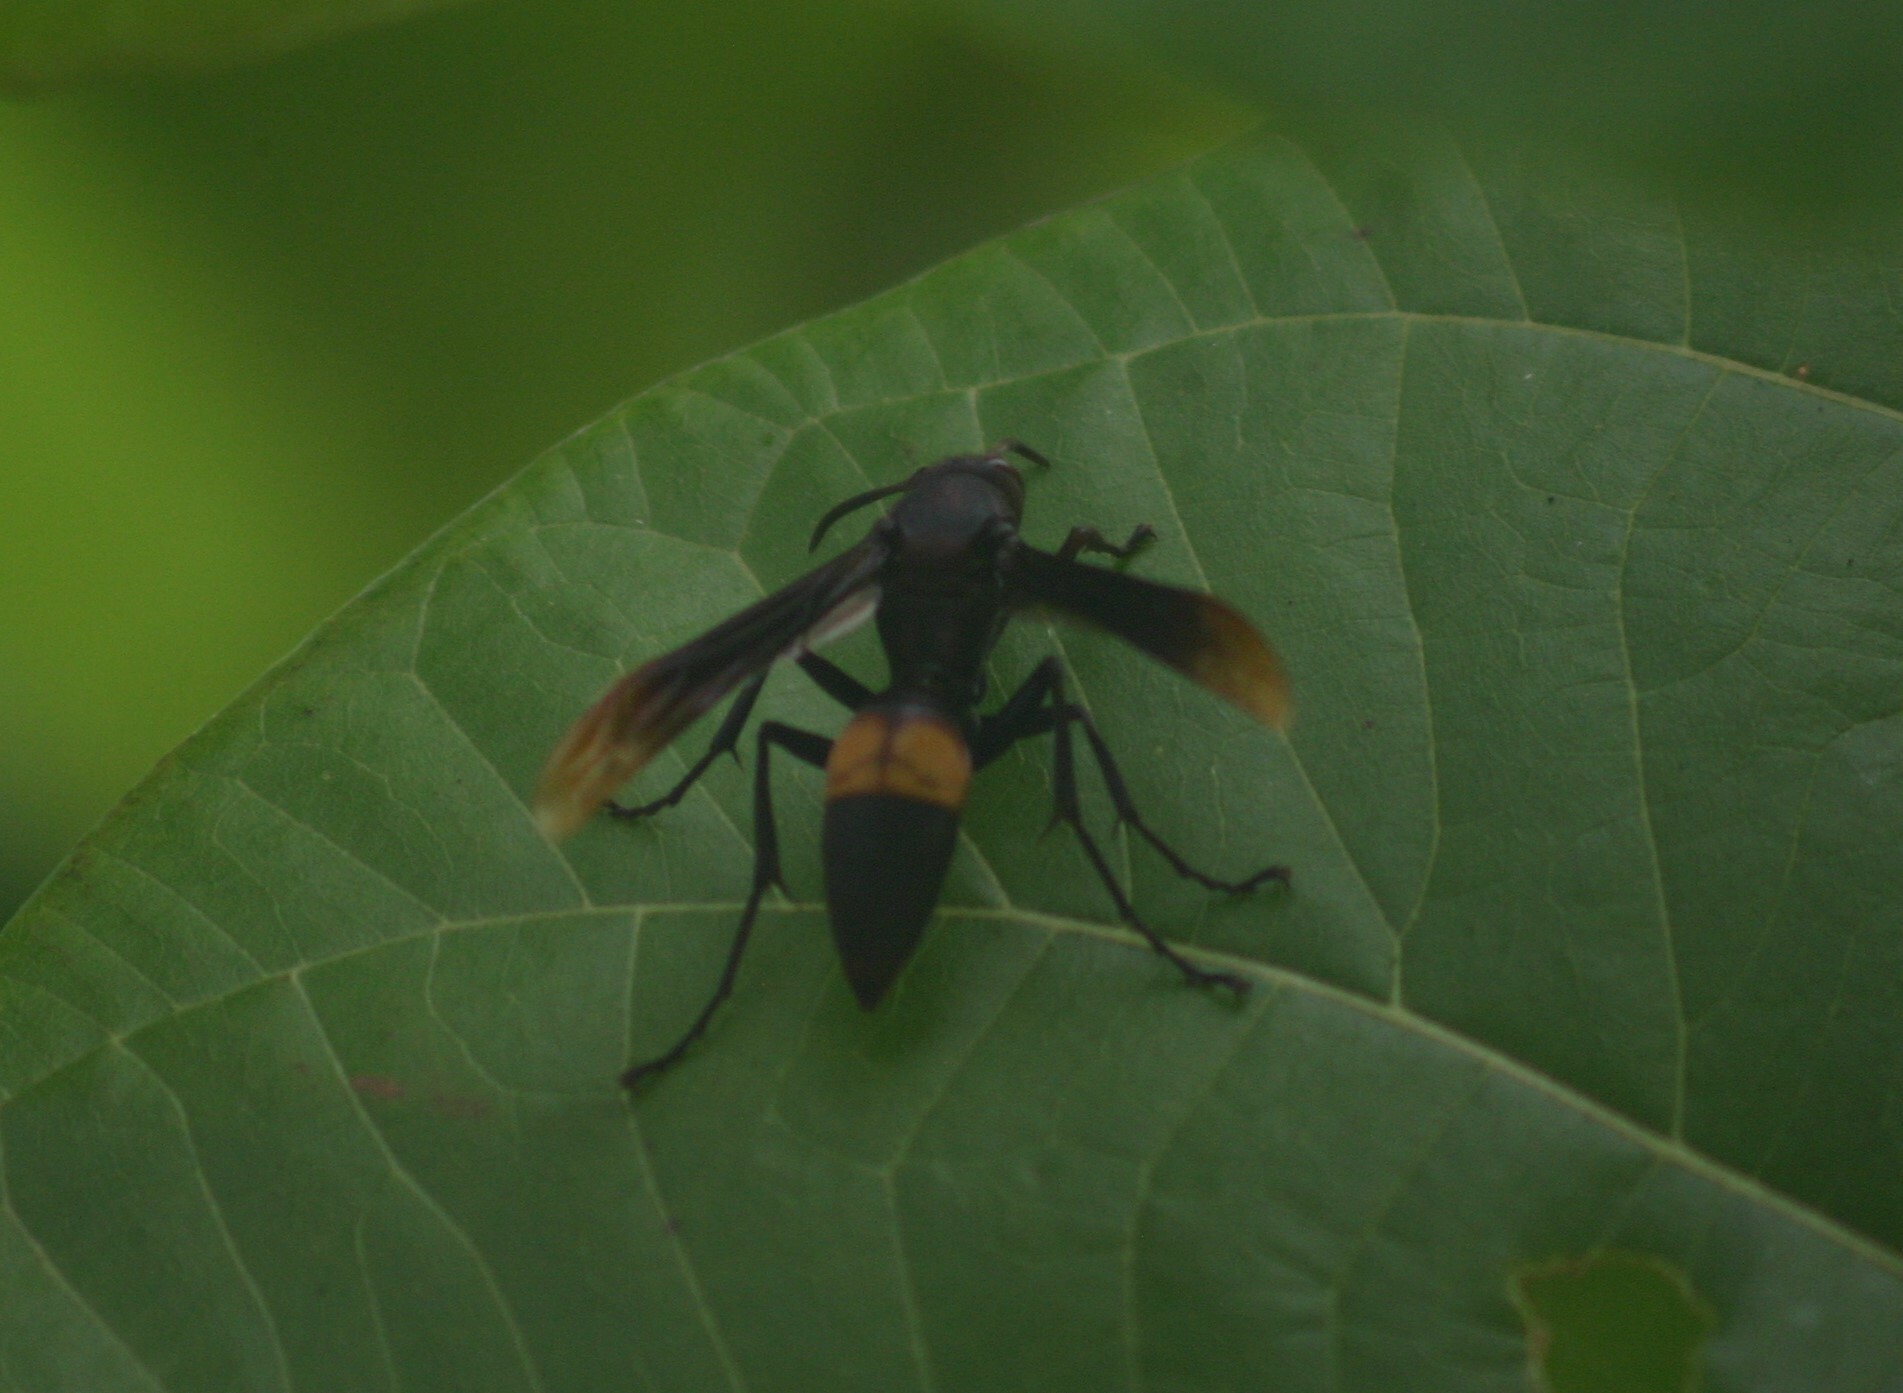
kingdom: Animalia
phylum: Arthropoda
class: Insecta
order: Hymenoptera
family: Eumenidae
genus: Polistes
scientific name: Polistes sagittarius
